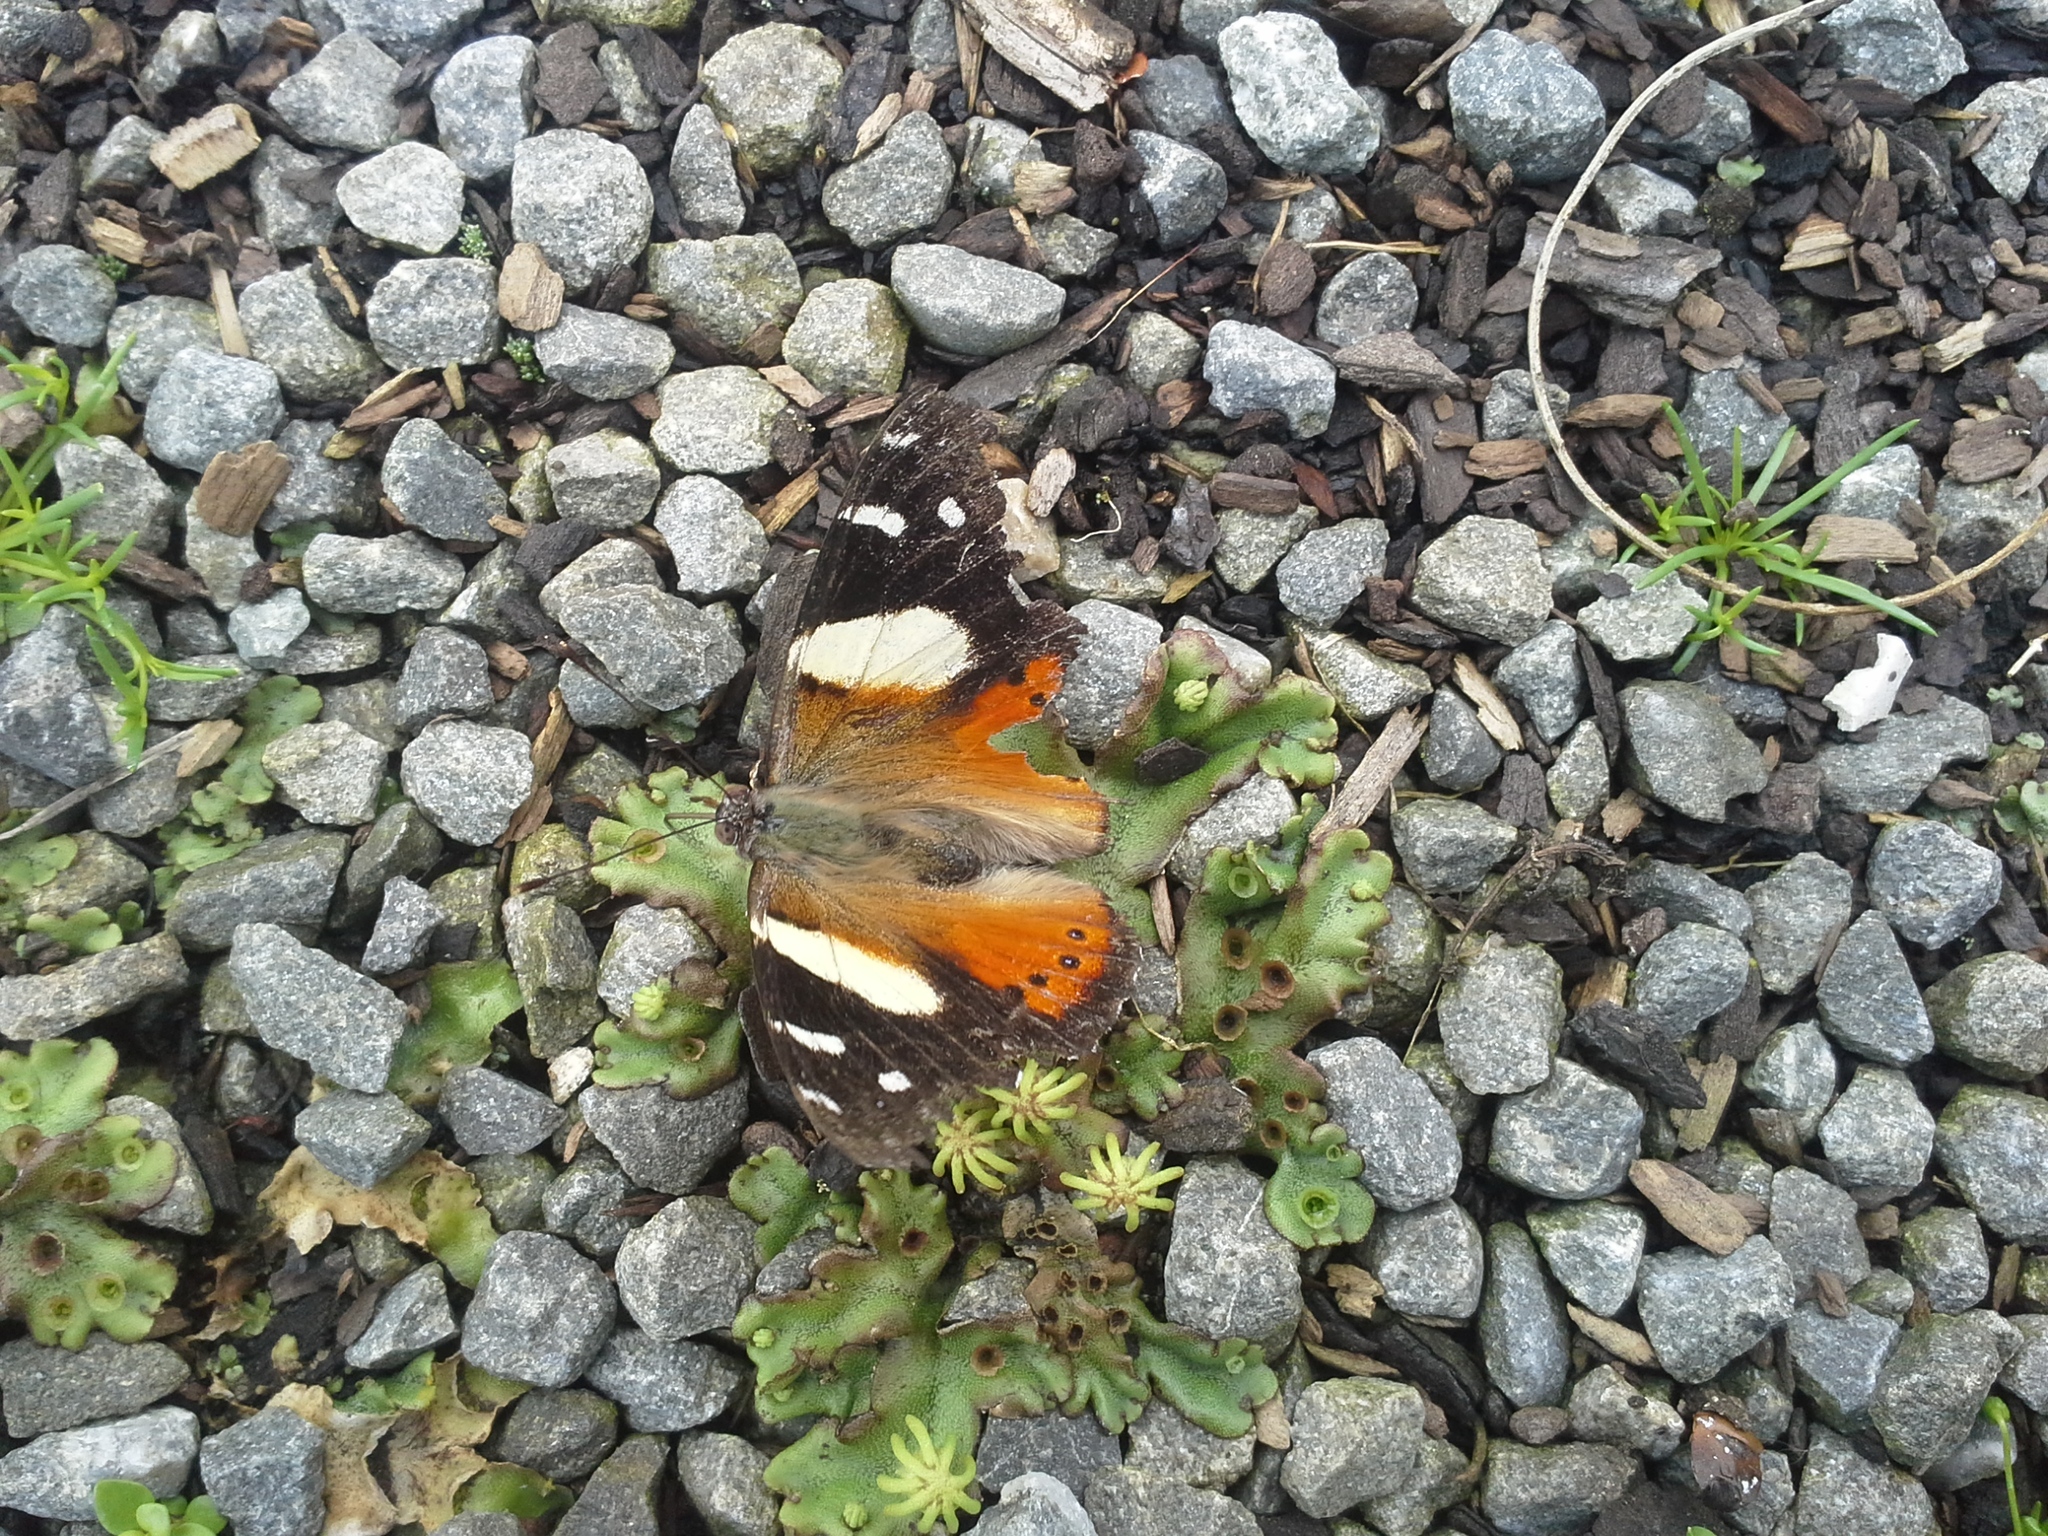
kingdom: Animalia
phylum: Arthropoda
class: Insecta
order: Lepidoptera
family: Nymphalidae
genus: Vanessa
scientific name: Vanessa itea
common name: Yellow admiral
